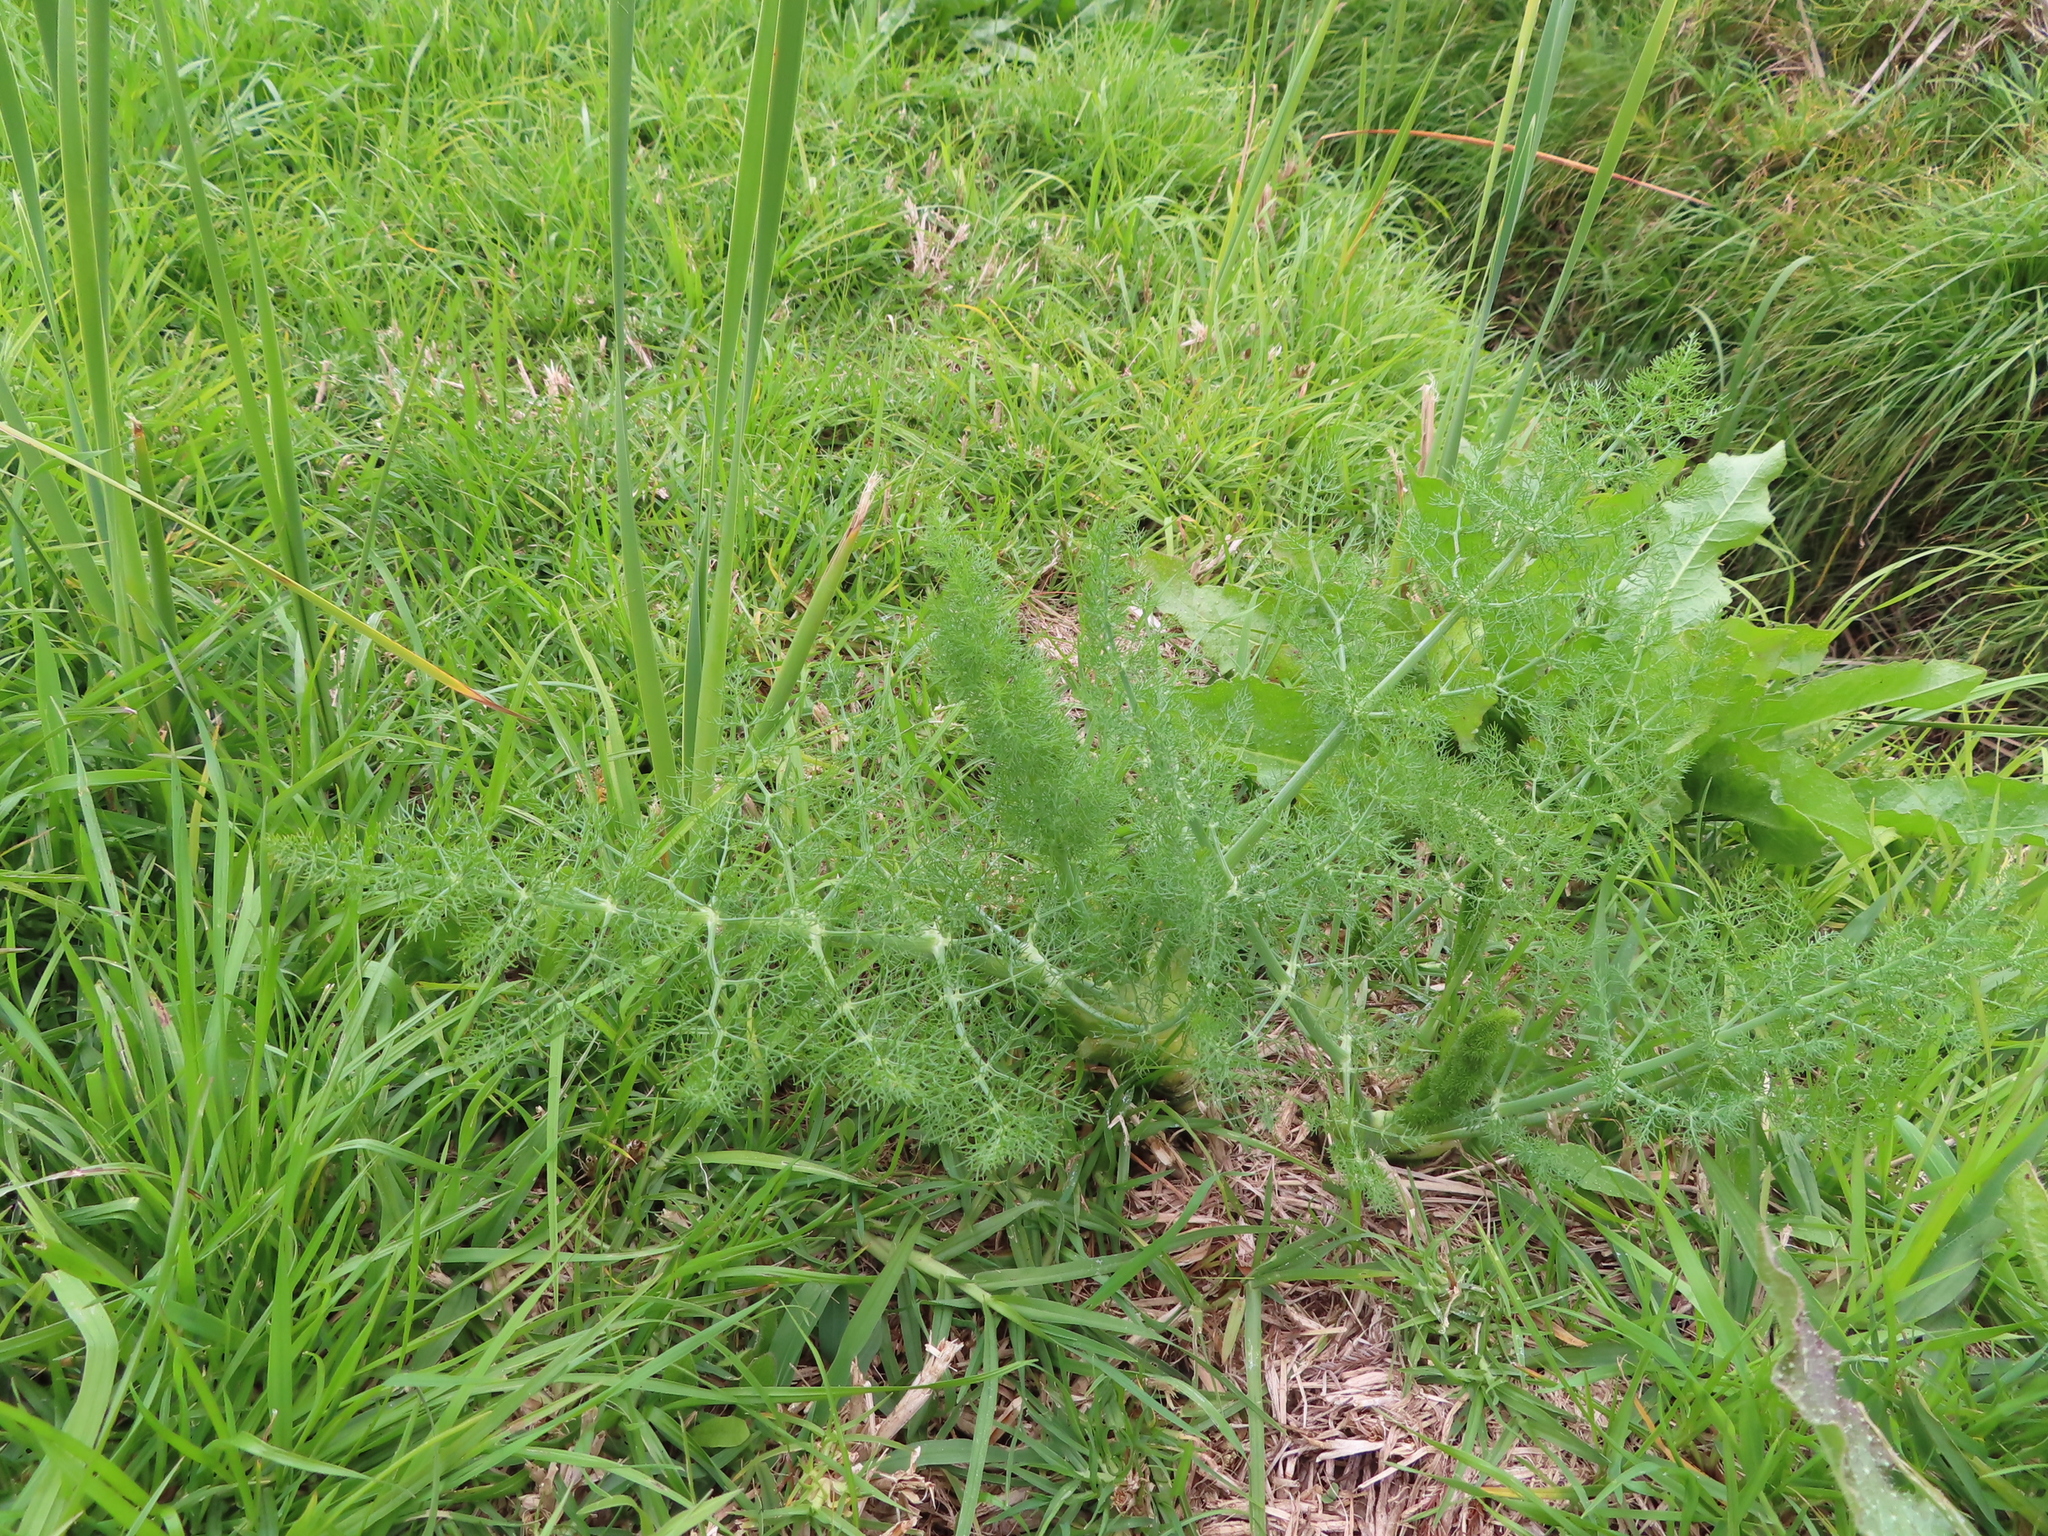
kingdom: Plantae
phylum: Tracheophyta
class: Magnoliopsida
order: Apiales
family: Apiaceae
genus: Foeniculum
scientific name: Foeniculum vulgare
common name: Fennel
